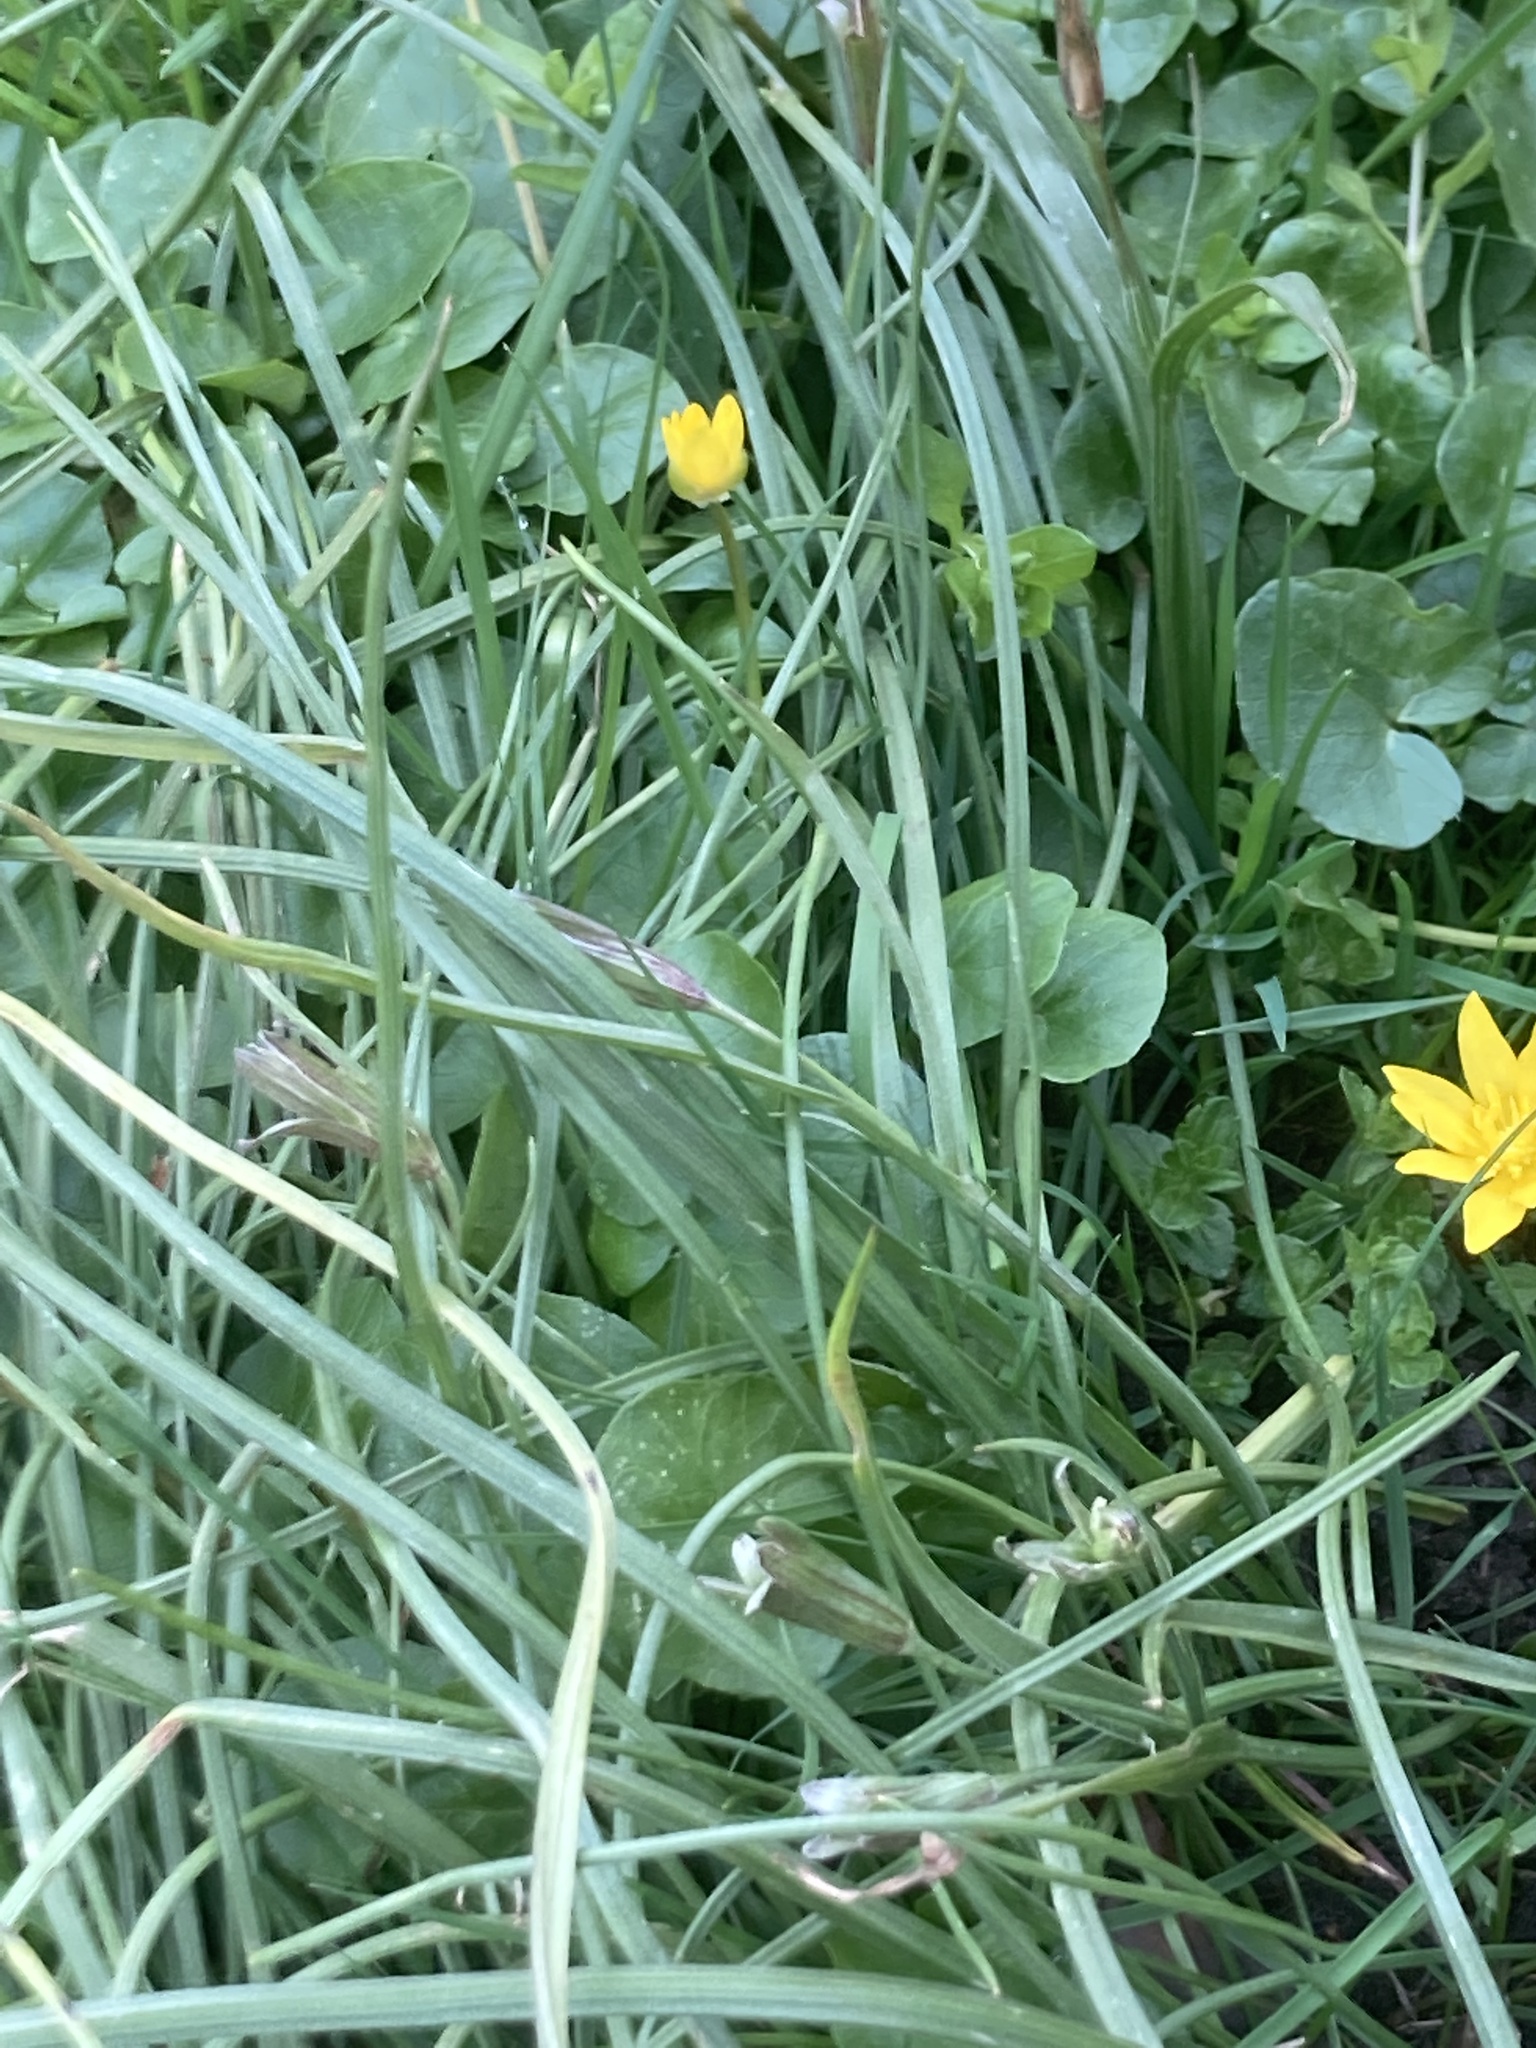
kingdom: Plantae
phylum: Tracheophyta
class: Magnoliopsida
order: Ranunculales
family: Ranunculaceae
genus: Ficaria
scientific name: Ficaria verna
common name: Lesser celandine
